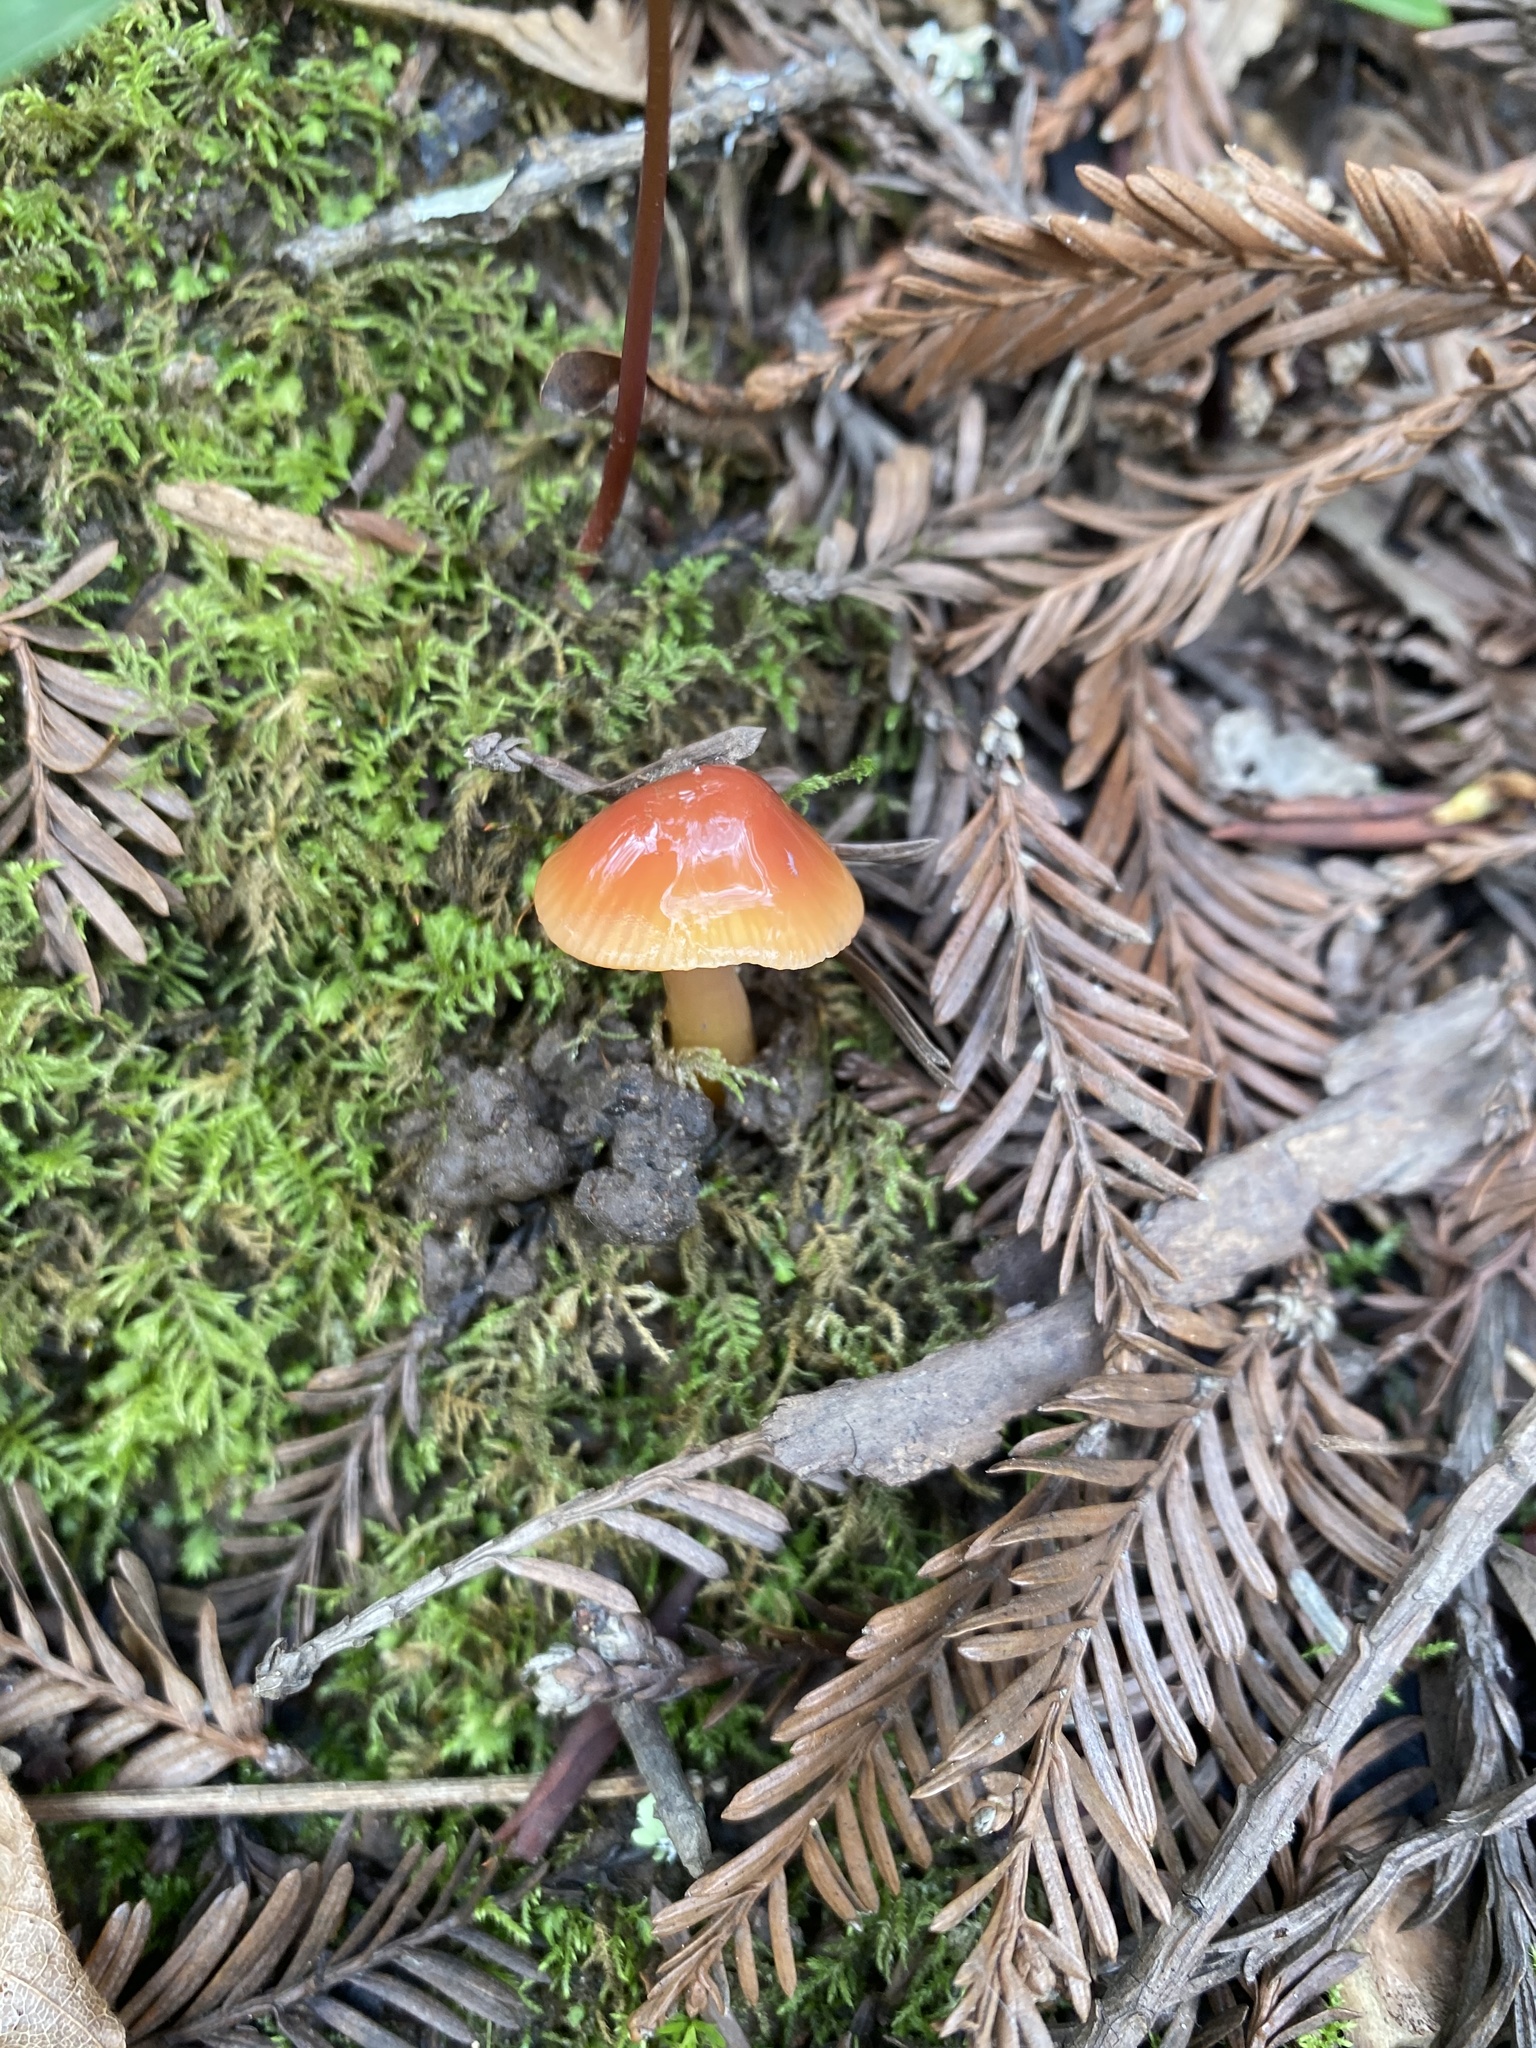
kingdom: Fungi
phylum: Basidiomycota
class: Agaricomycetes
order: Agaricales
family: Hygrophoraceae
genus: Gliophorus
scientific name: Gliophorus psittacinus
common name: Parrot wax-cap
